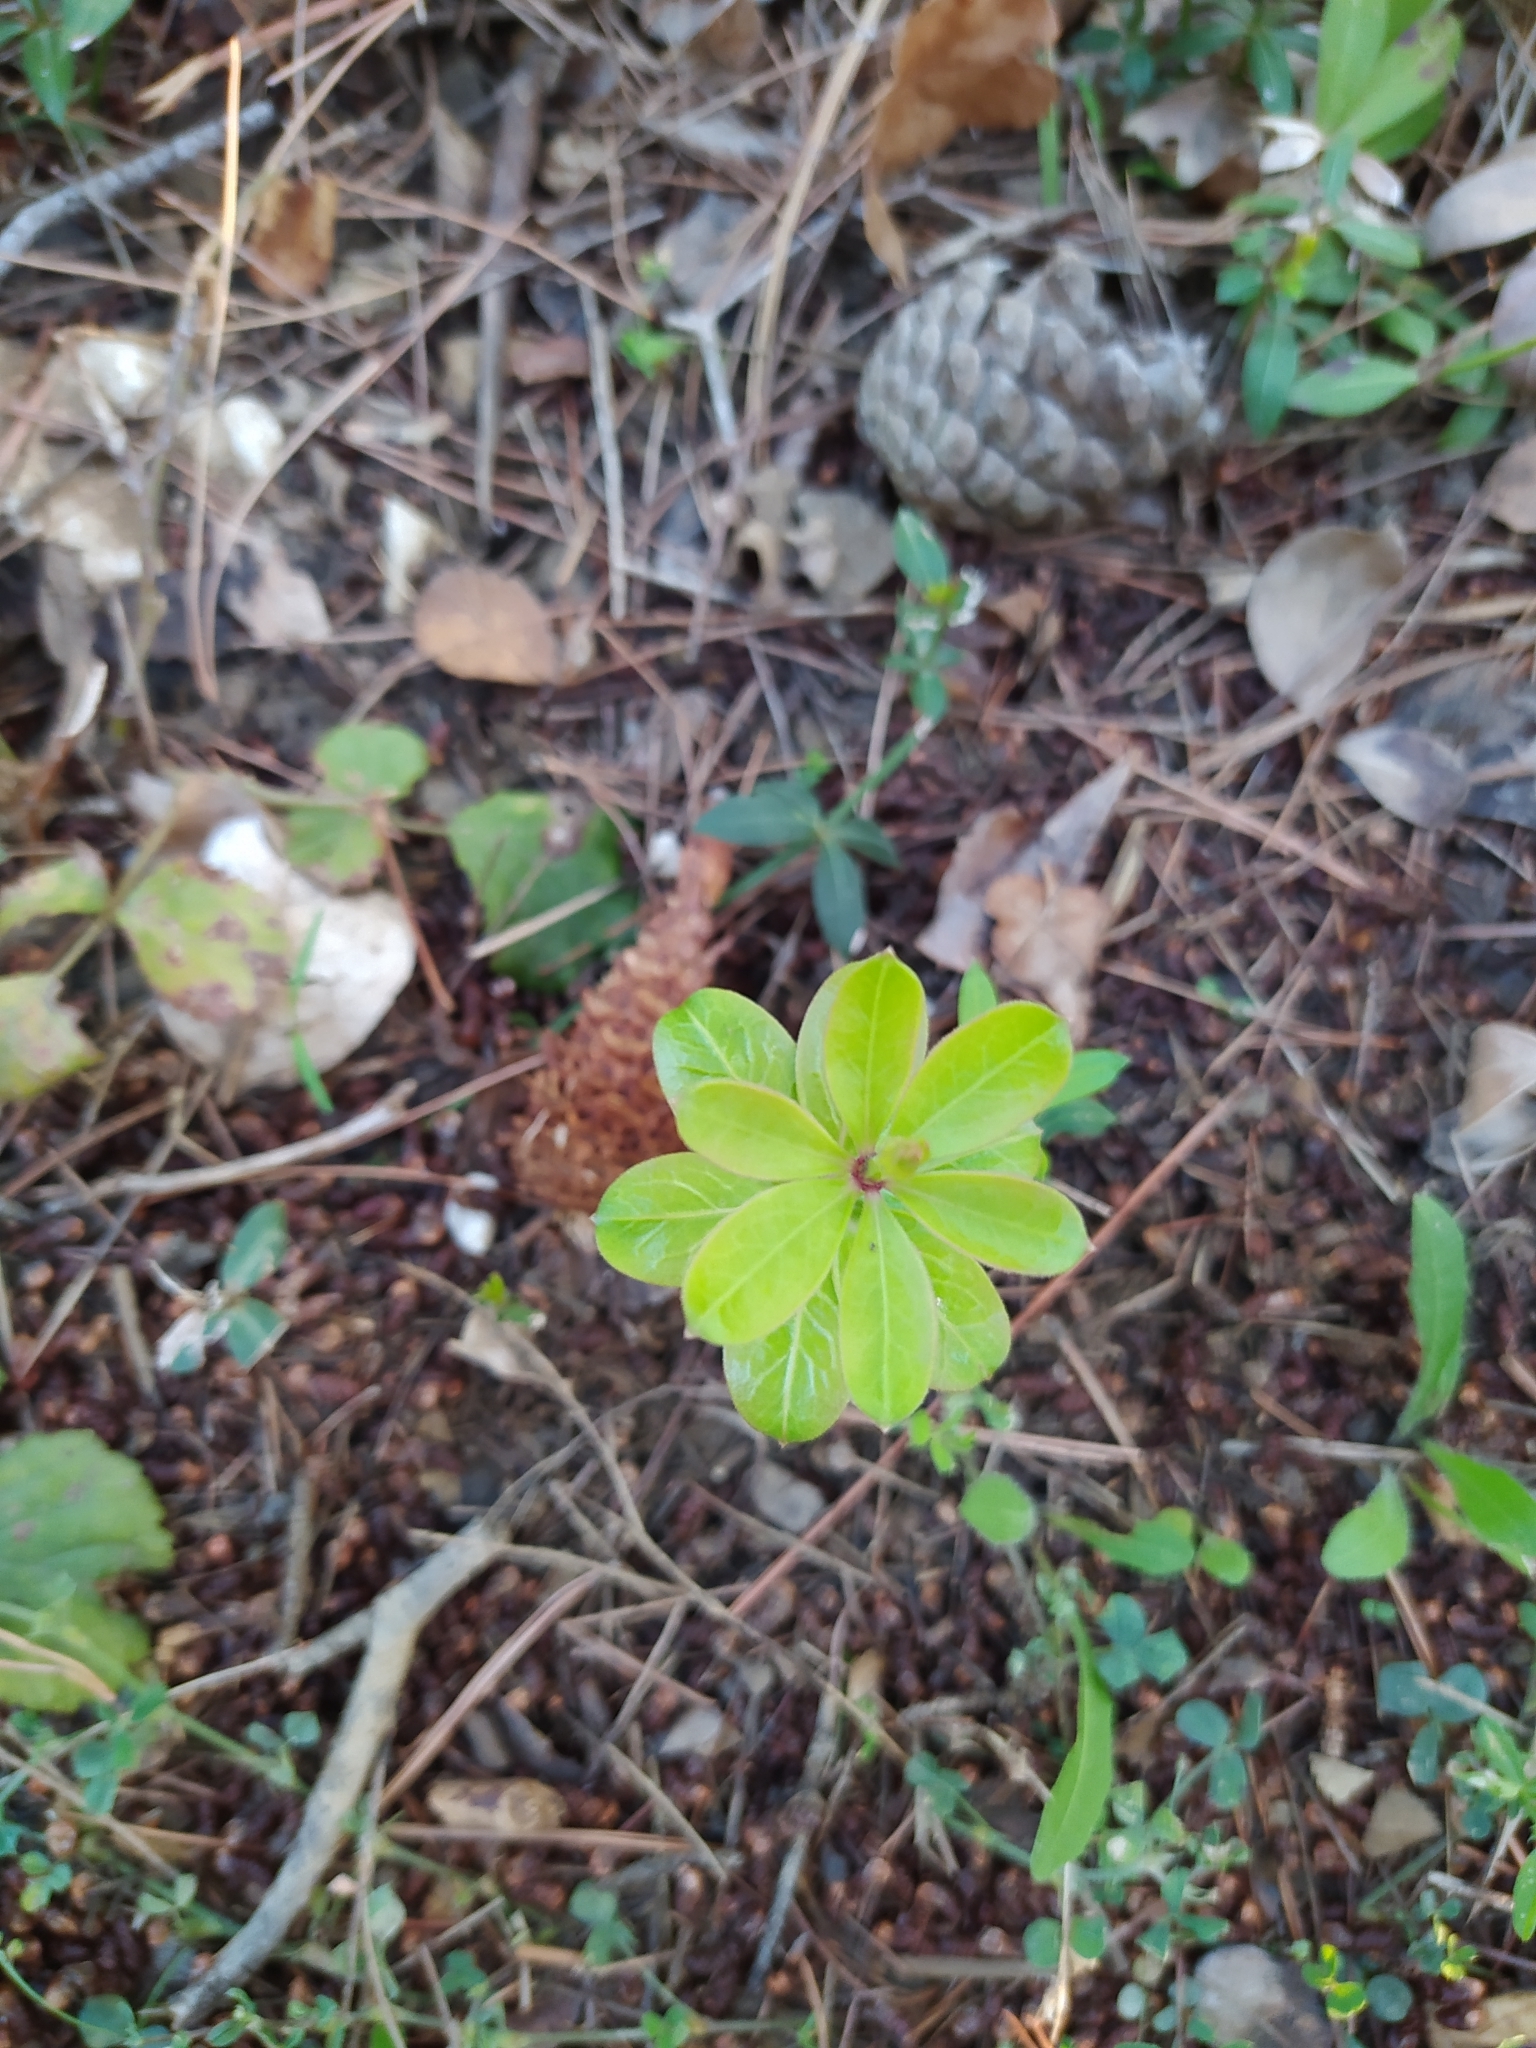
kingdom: Plantae
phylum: Tracheophyta
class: Magnoliopsida
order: Gentianales
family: Rubiaceae
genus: Rubia
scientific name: Rubia peregrina
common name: Wild madder
